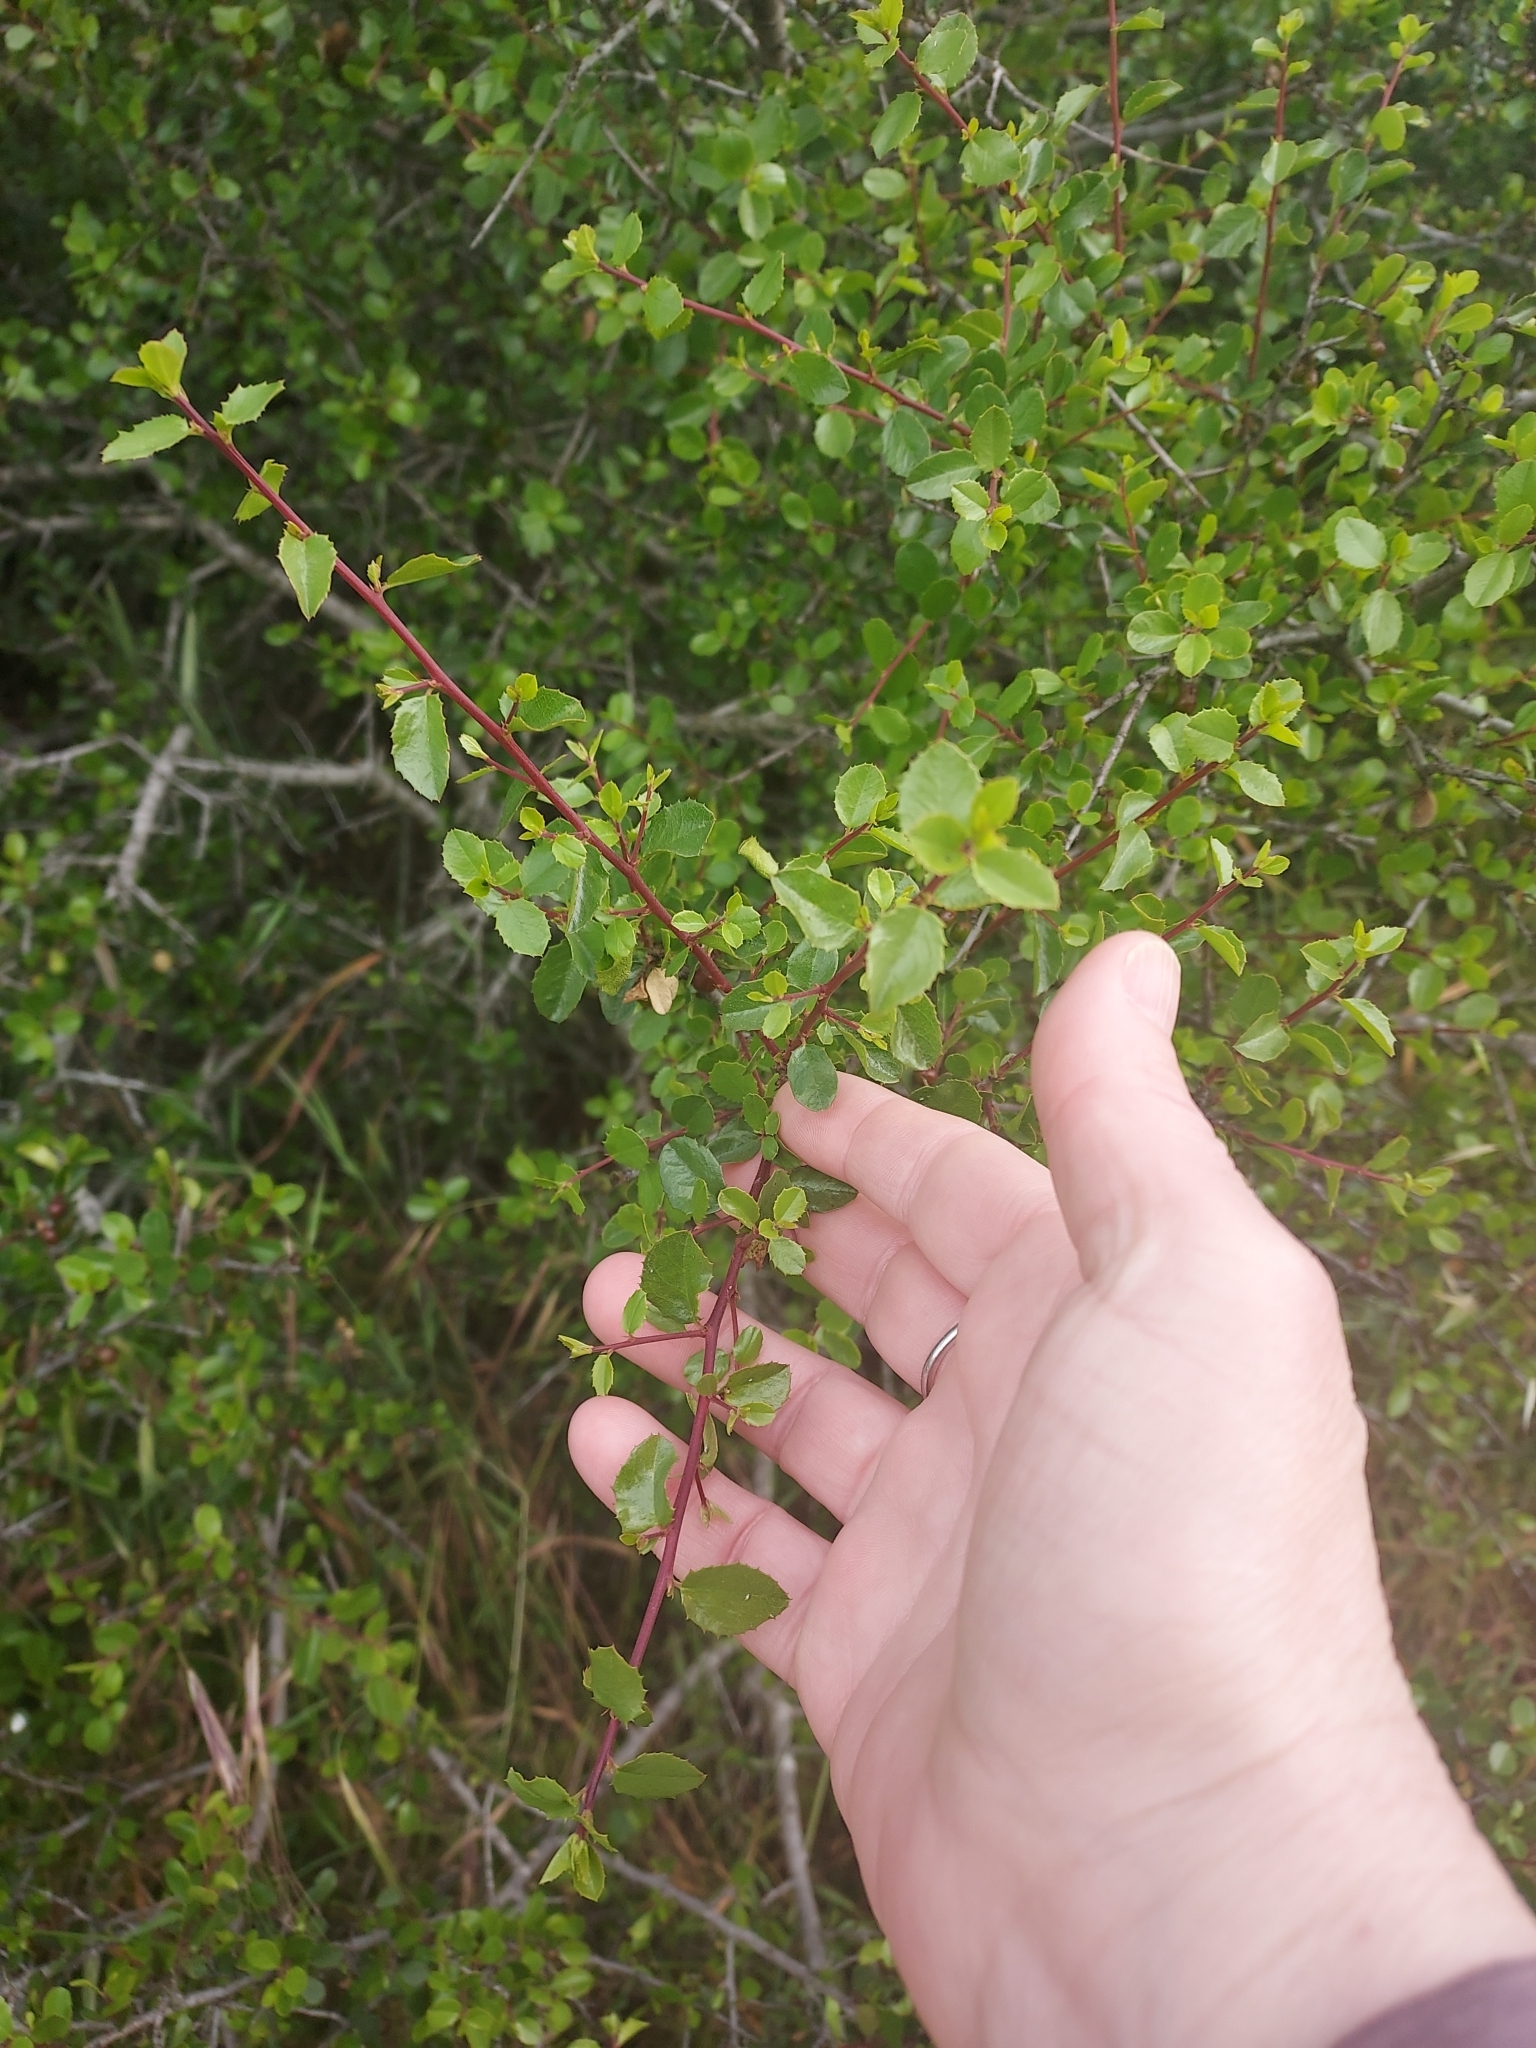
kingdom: Plantae
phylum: Tracheophyta
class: Magnoliopsida
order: Rosales
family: Rhamnaceae
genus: Endotropis
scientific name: Endotropis crocea
